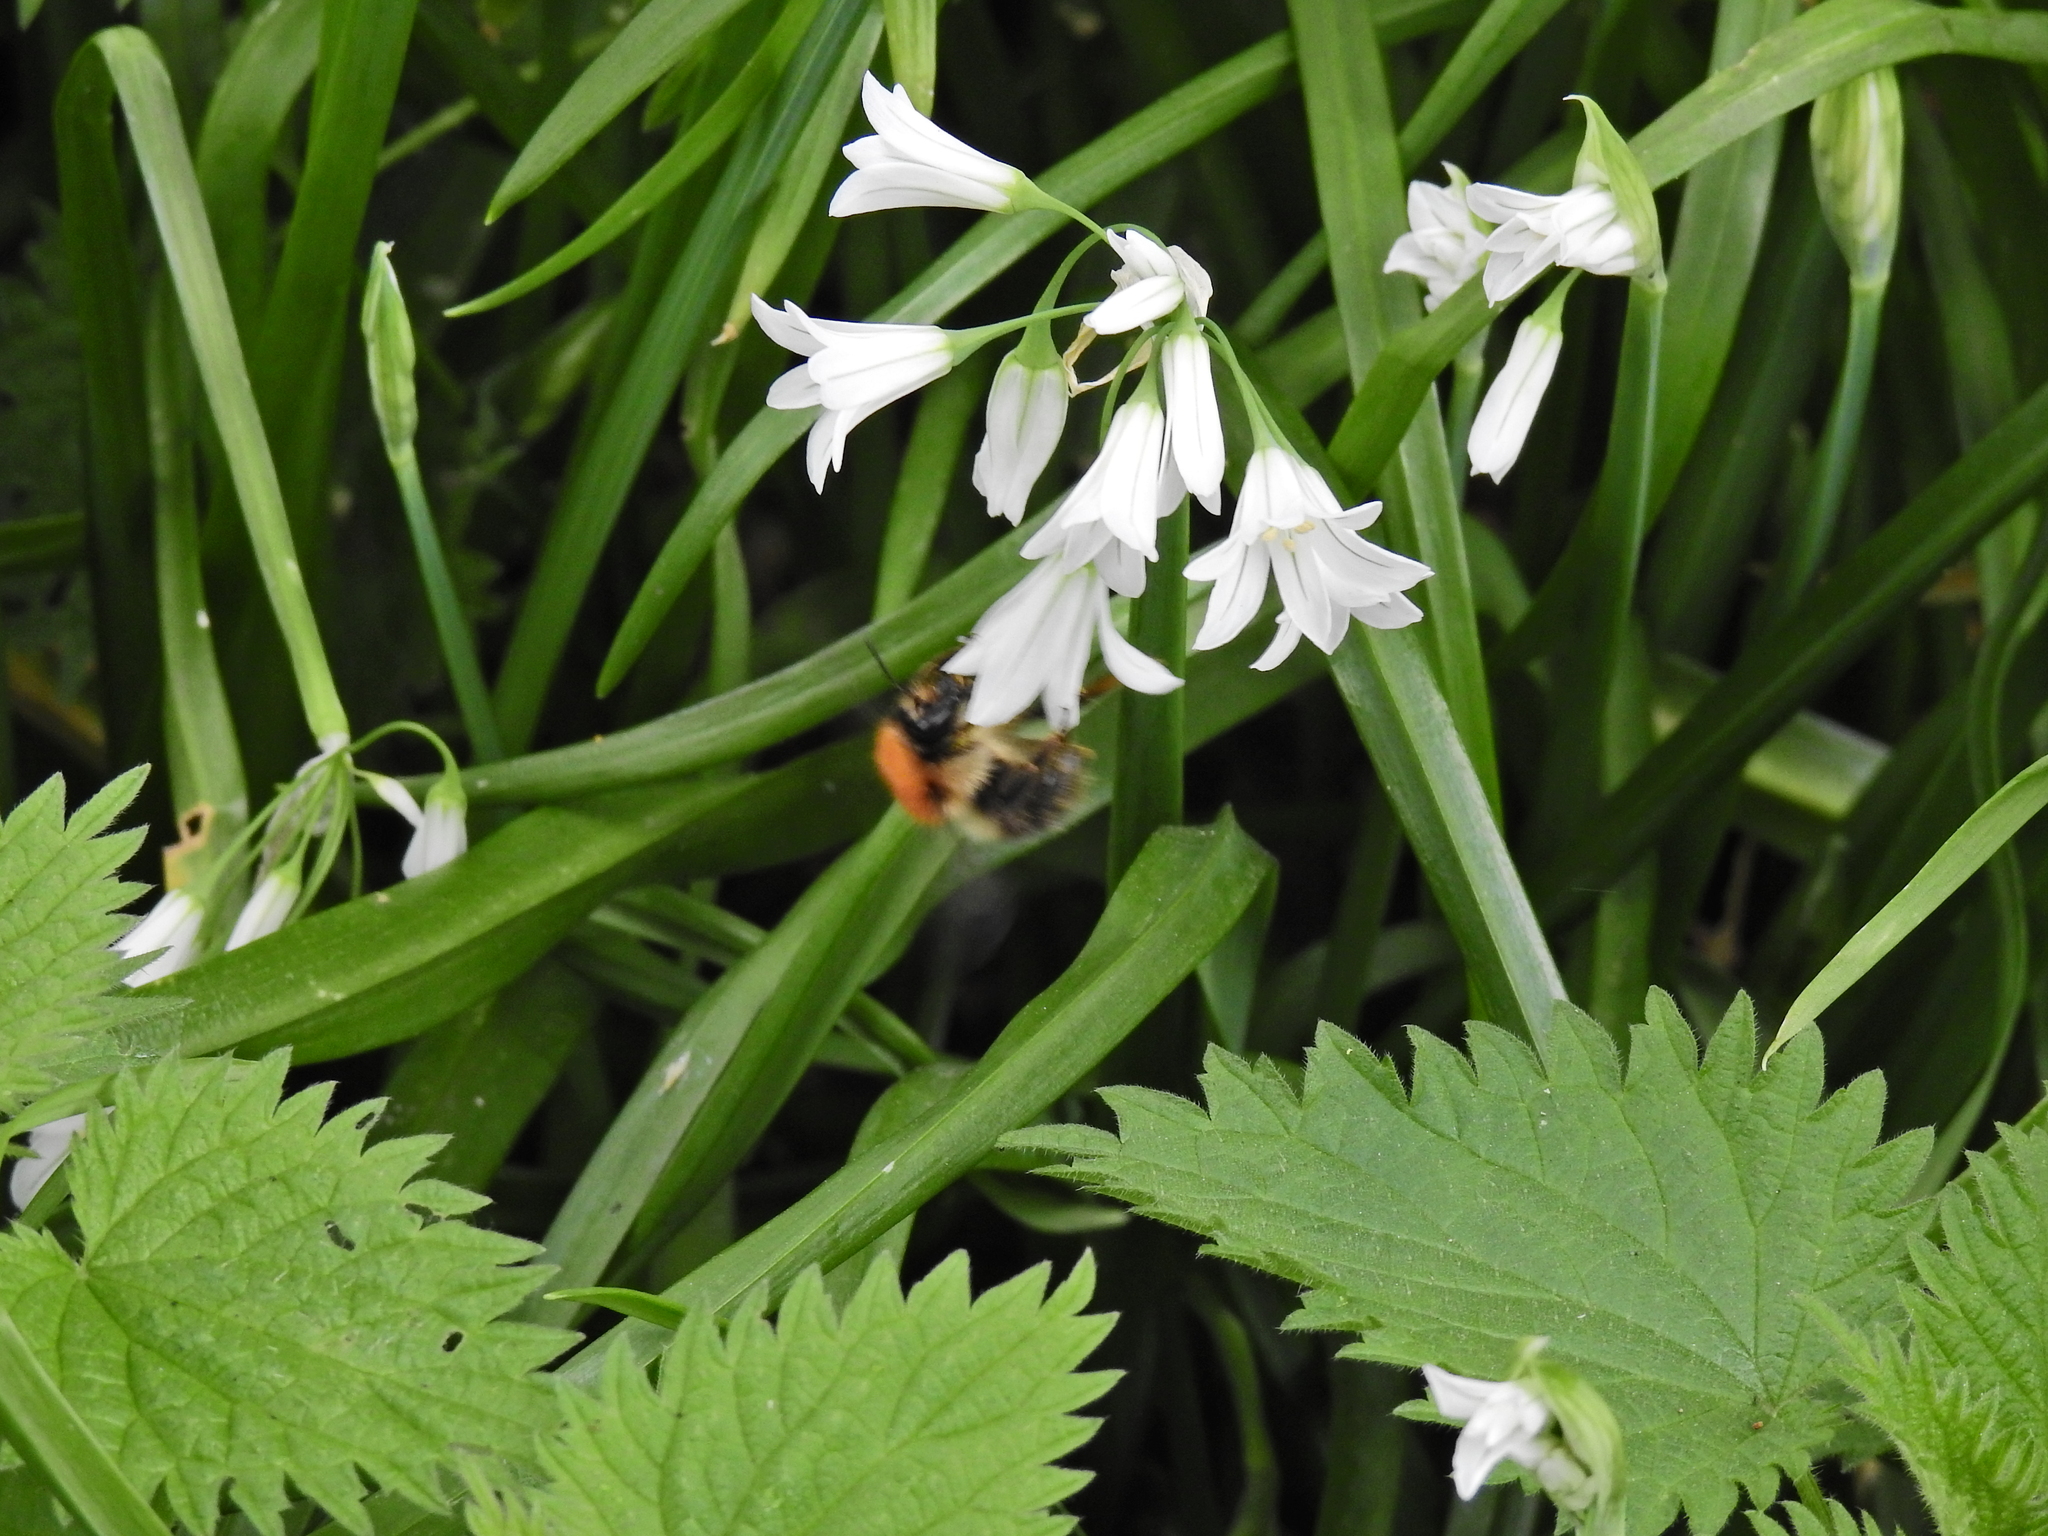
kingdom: Animalia
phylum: Arthropoda
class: Insecta
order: Hymenoptera
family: Apidae
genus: Bombus
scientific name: Bombus pascuorum
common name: Common carder bee
